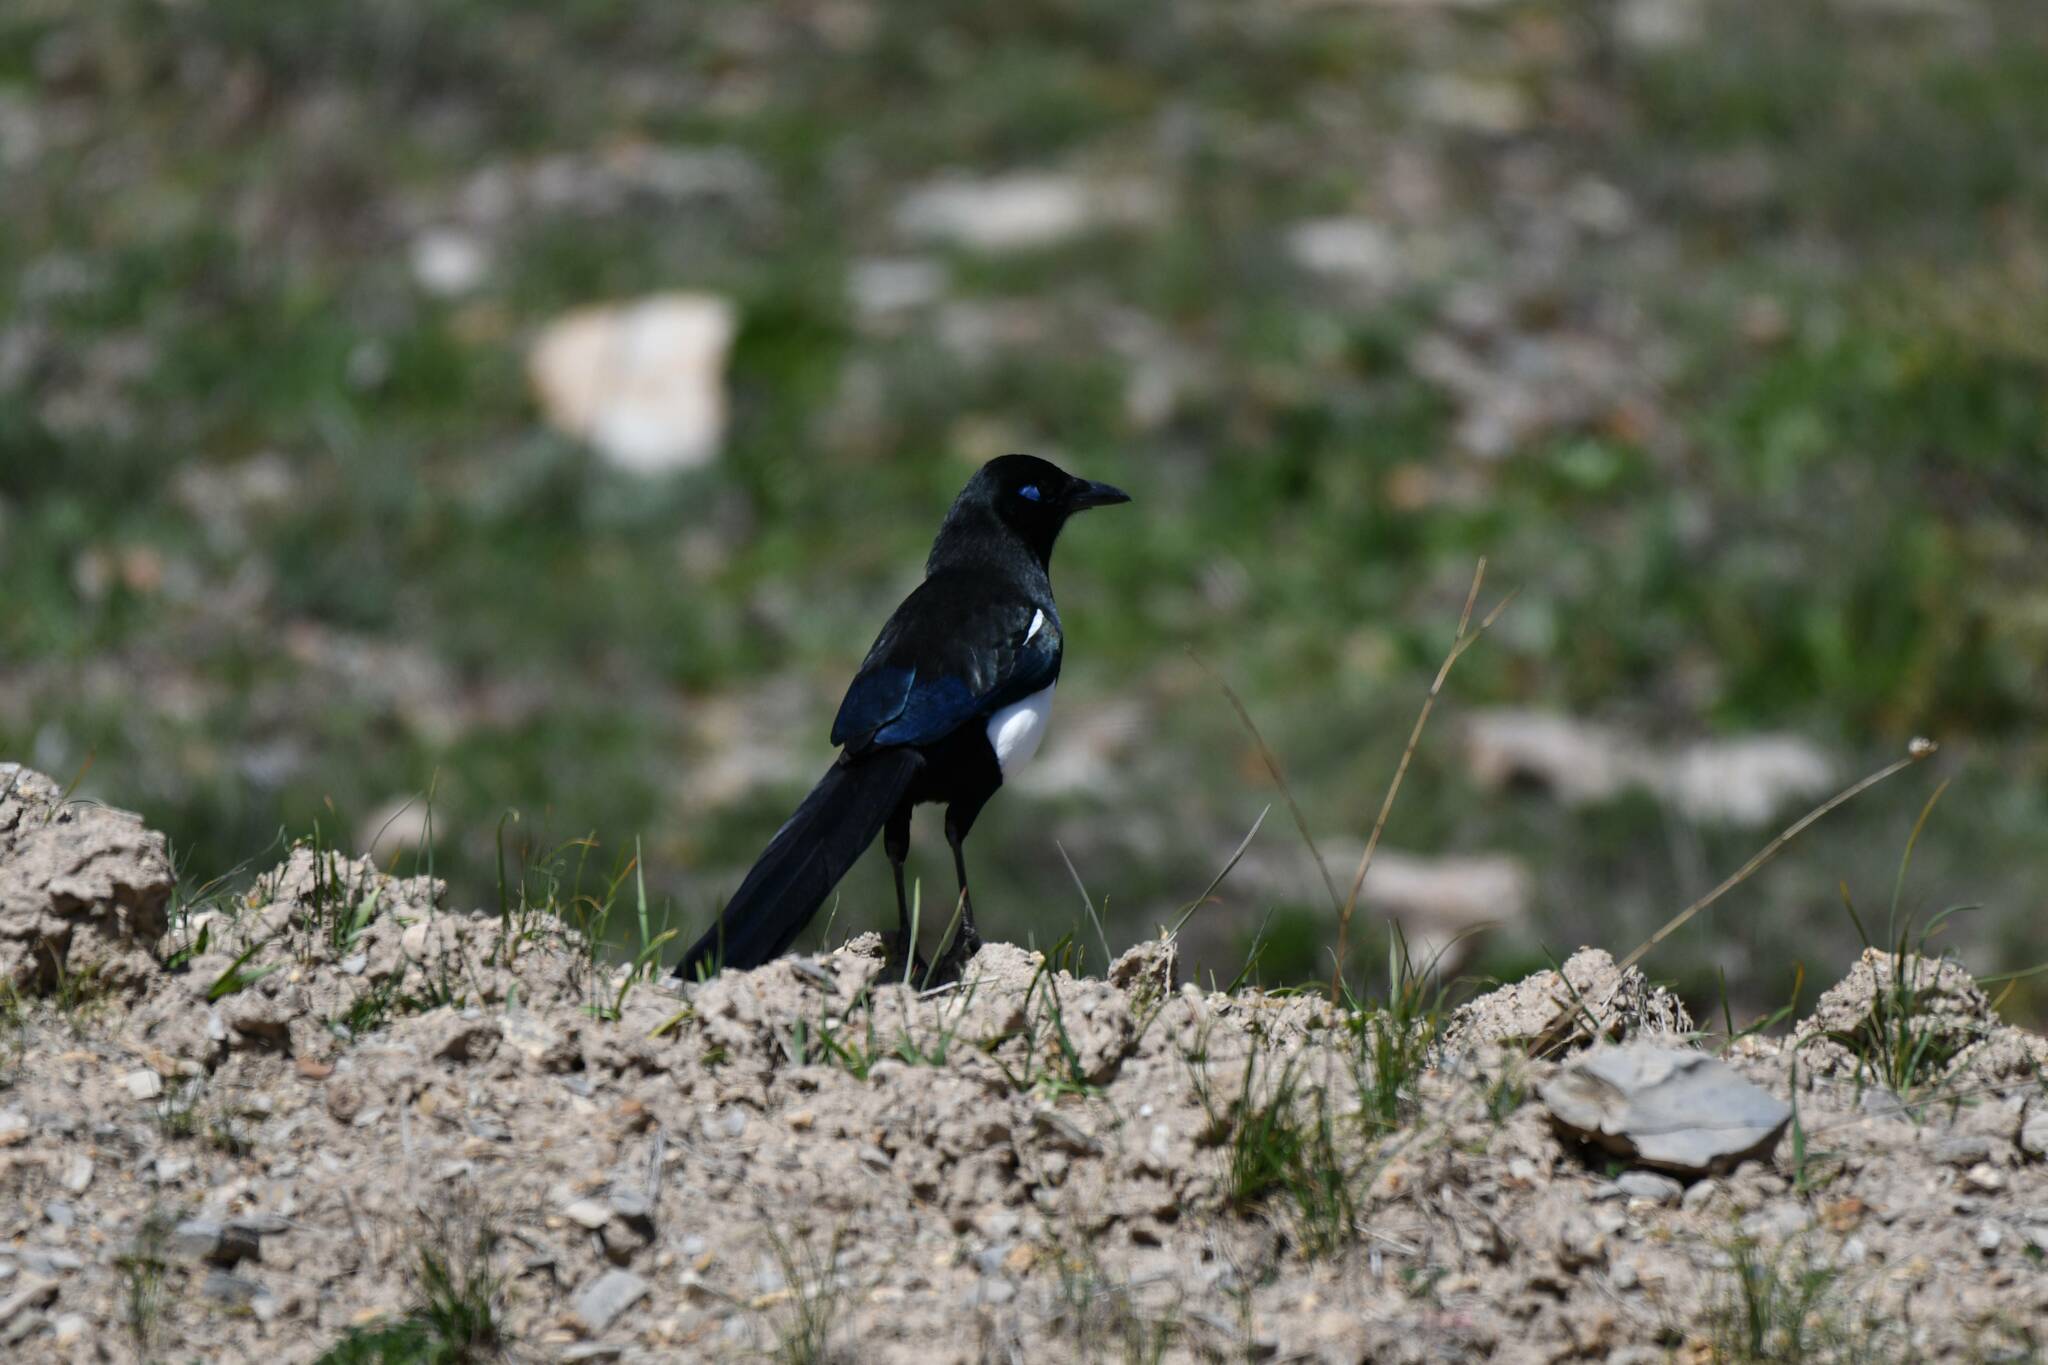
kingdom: Animalia
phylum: Chordata
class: Aves
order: Passeriformes
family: Corvidae
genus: Pica
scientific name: Pica mauritanica
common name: Maghreb magpie
